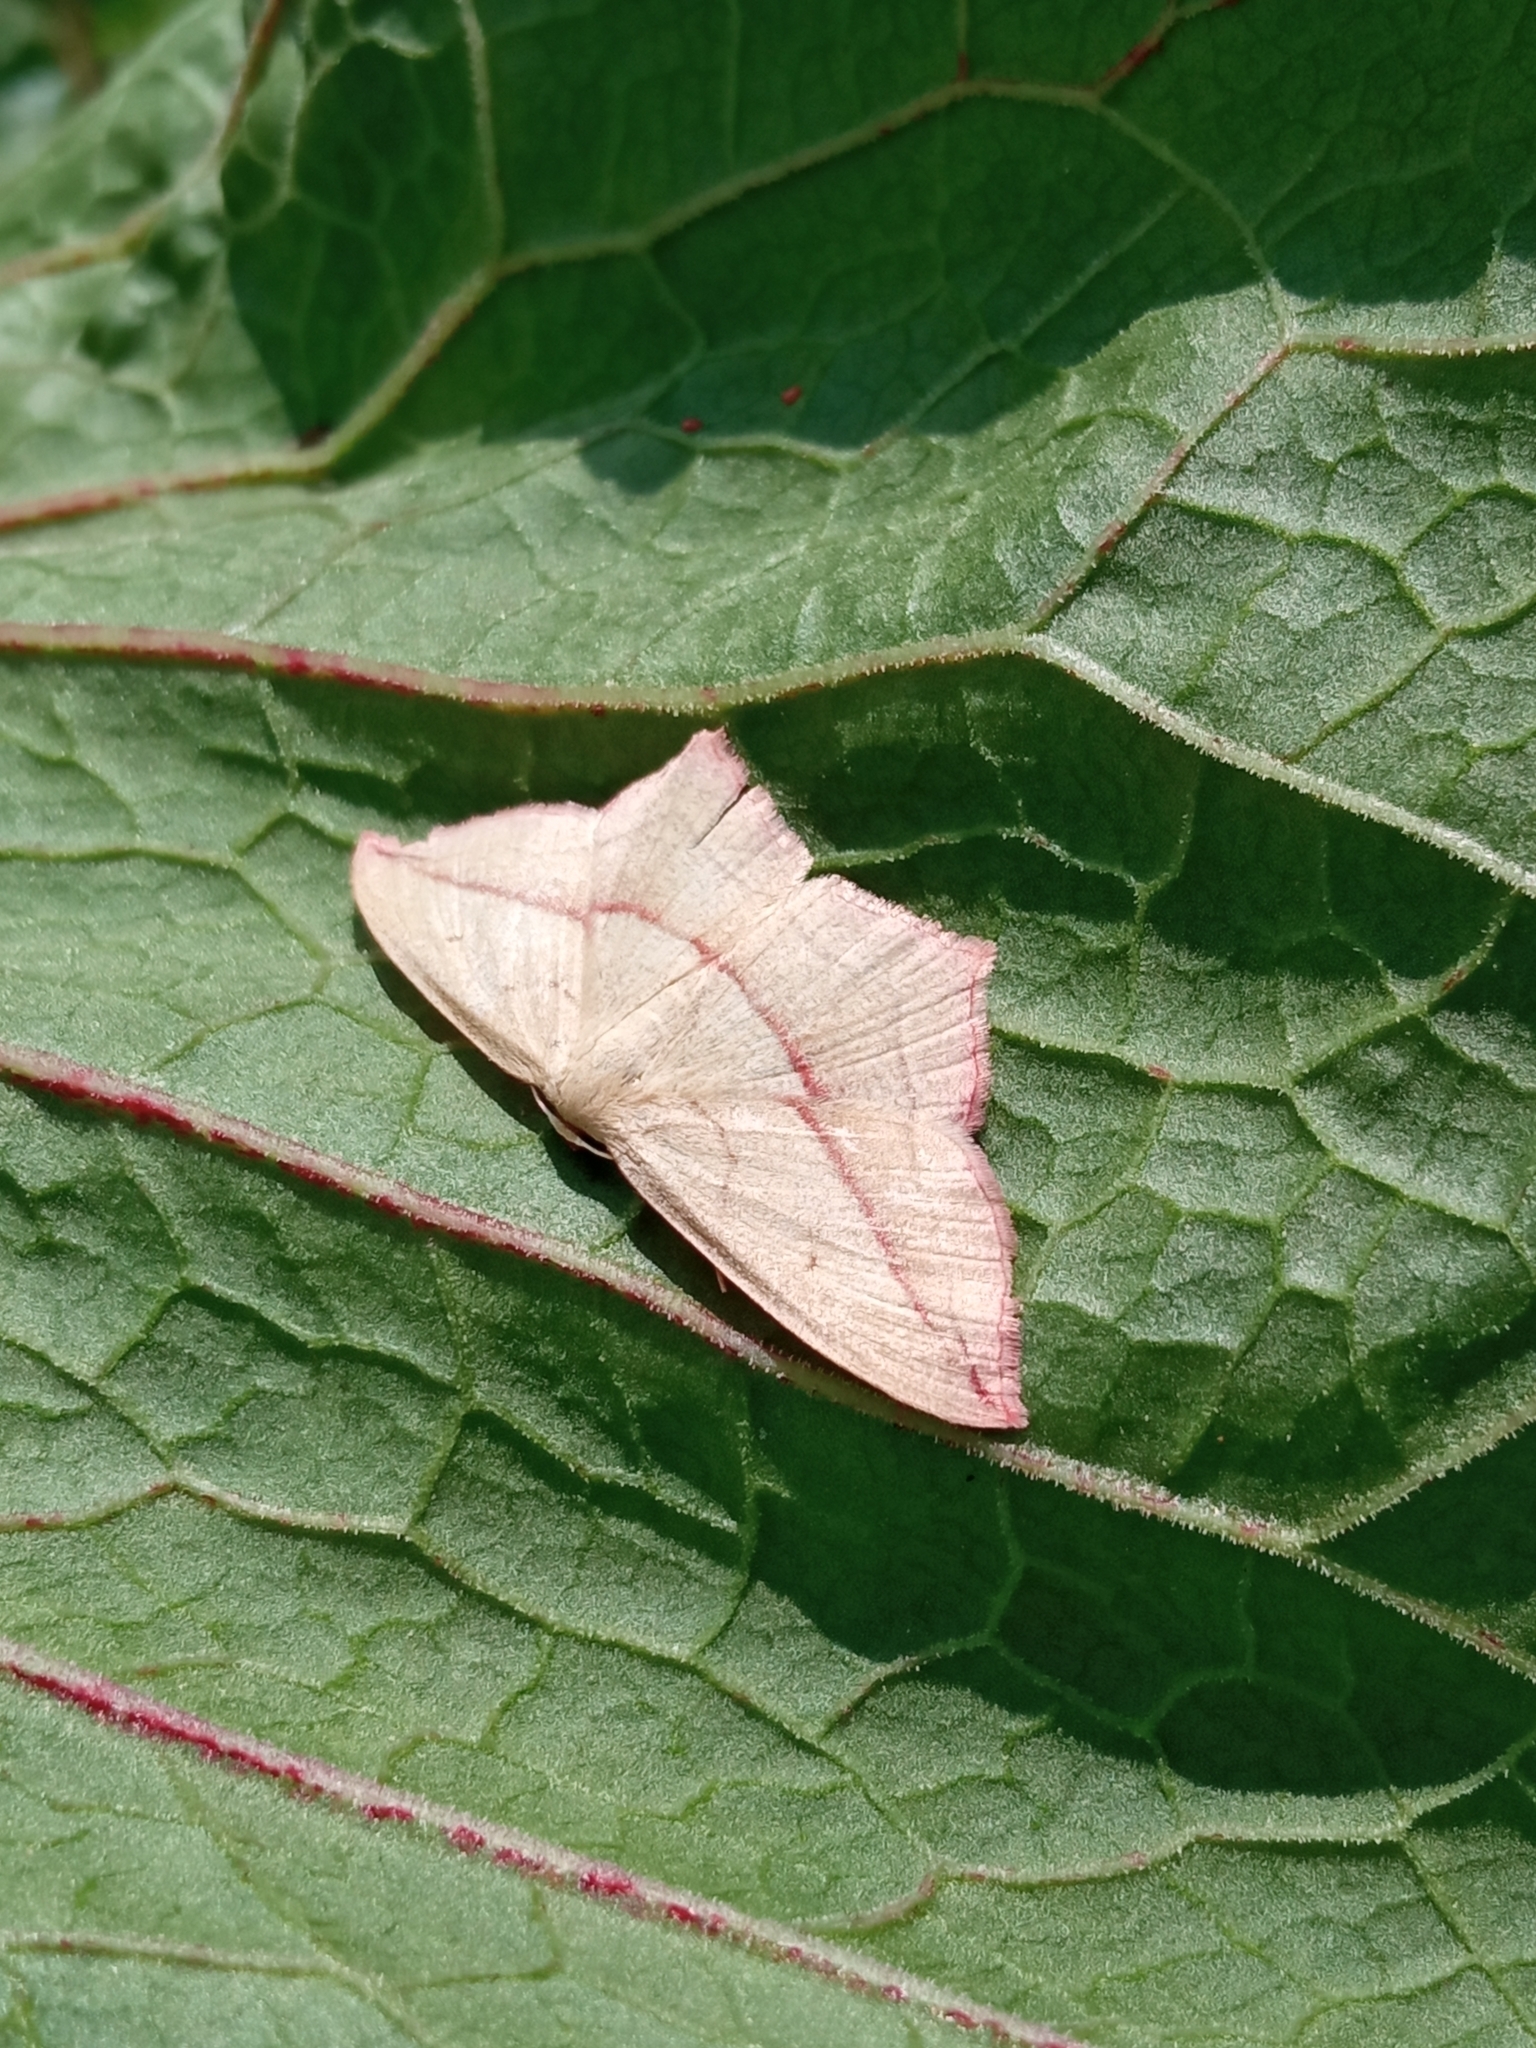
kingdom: Animalia
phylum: Arthropoda
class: Insecta
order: Lepidoptera
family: Geometridae
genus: Timandra
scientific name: Timandra comae
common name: Blood-vein
